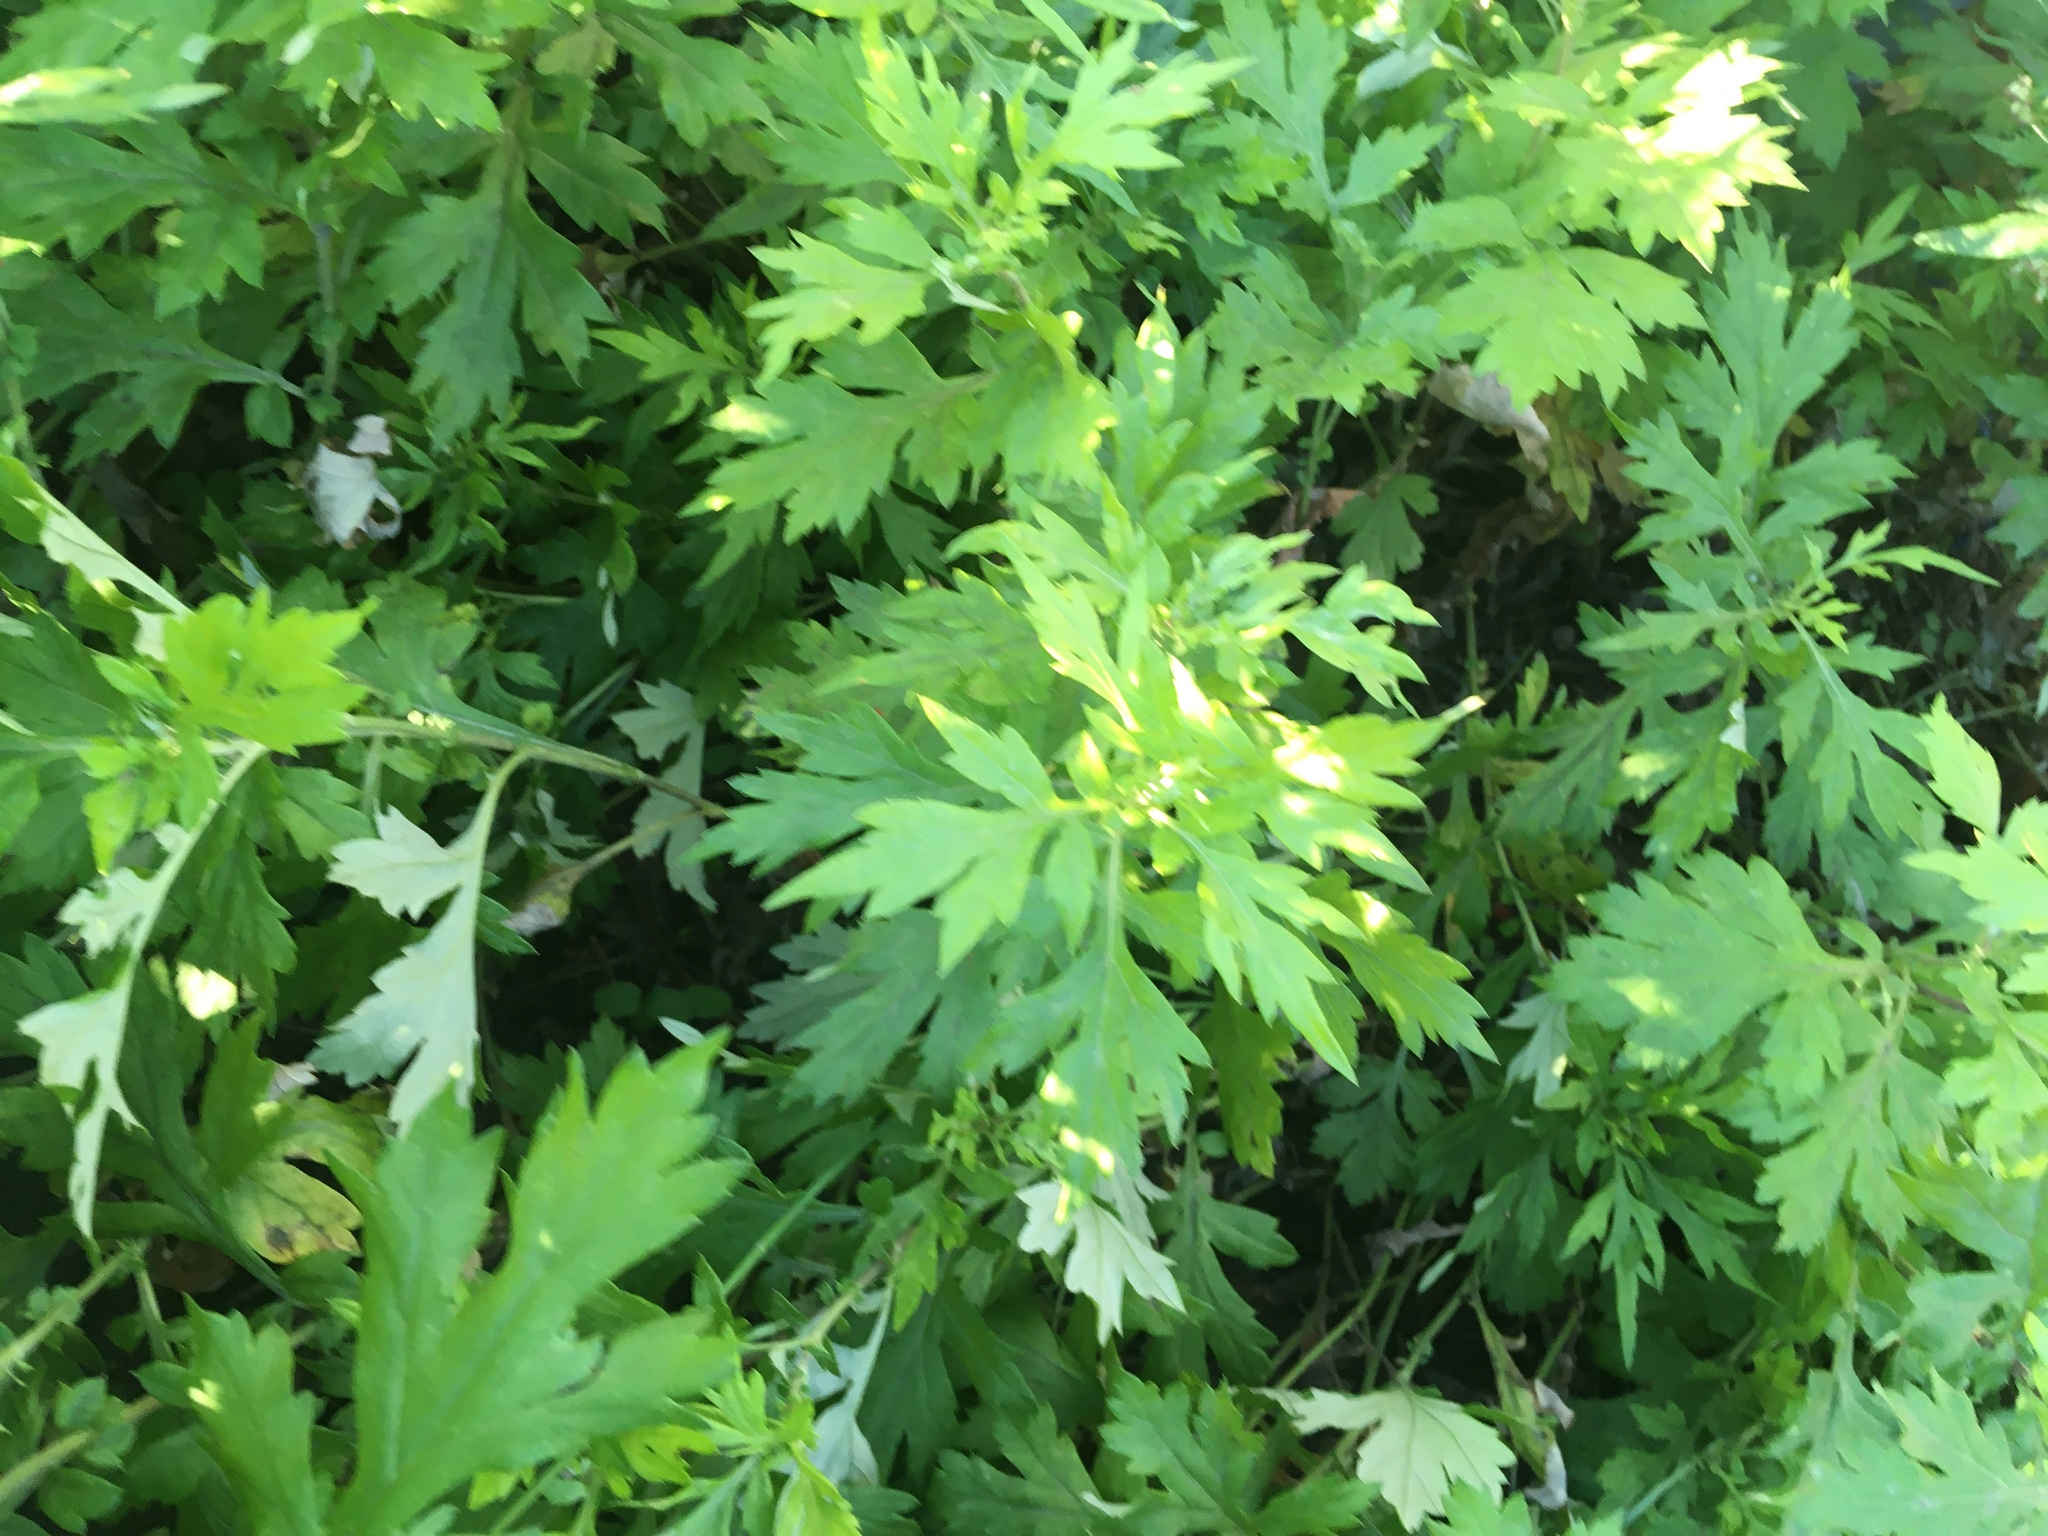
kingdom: Plantae
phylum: Tracheophyta
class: Magnoliopsida
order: Asterales
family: Asteraceae
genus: Artemisia
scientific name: Artemisia vulgaris
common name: Mugwort
